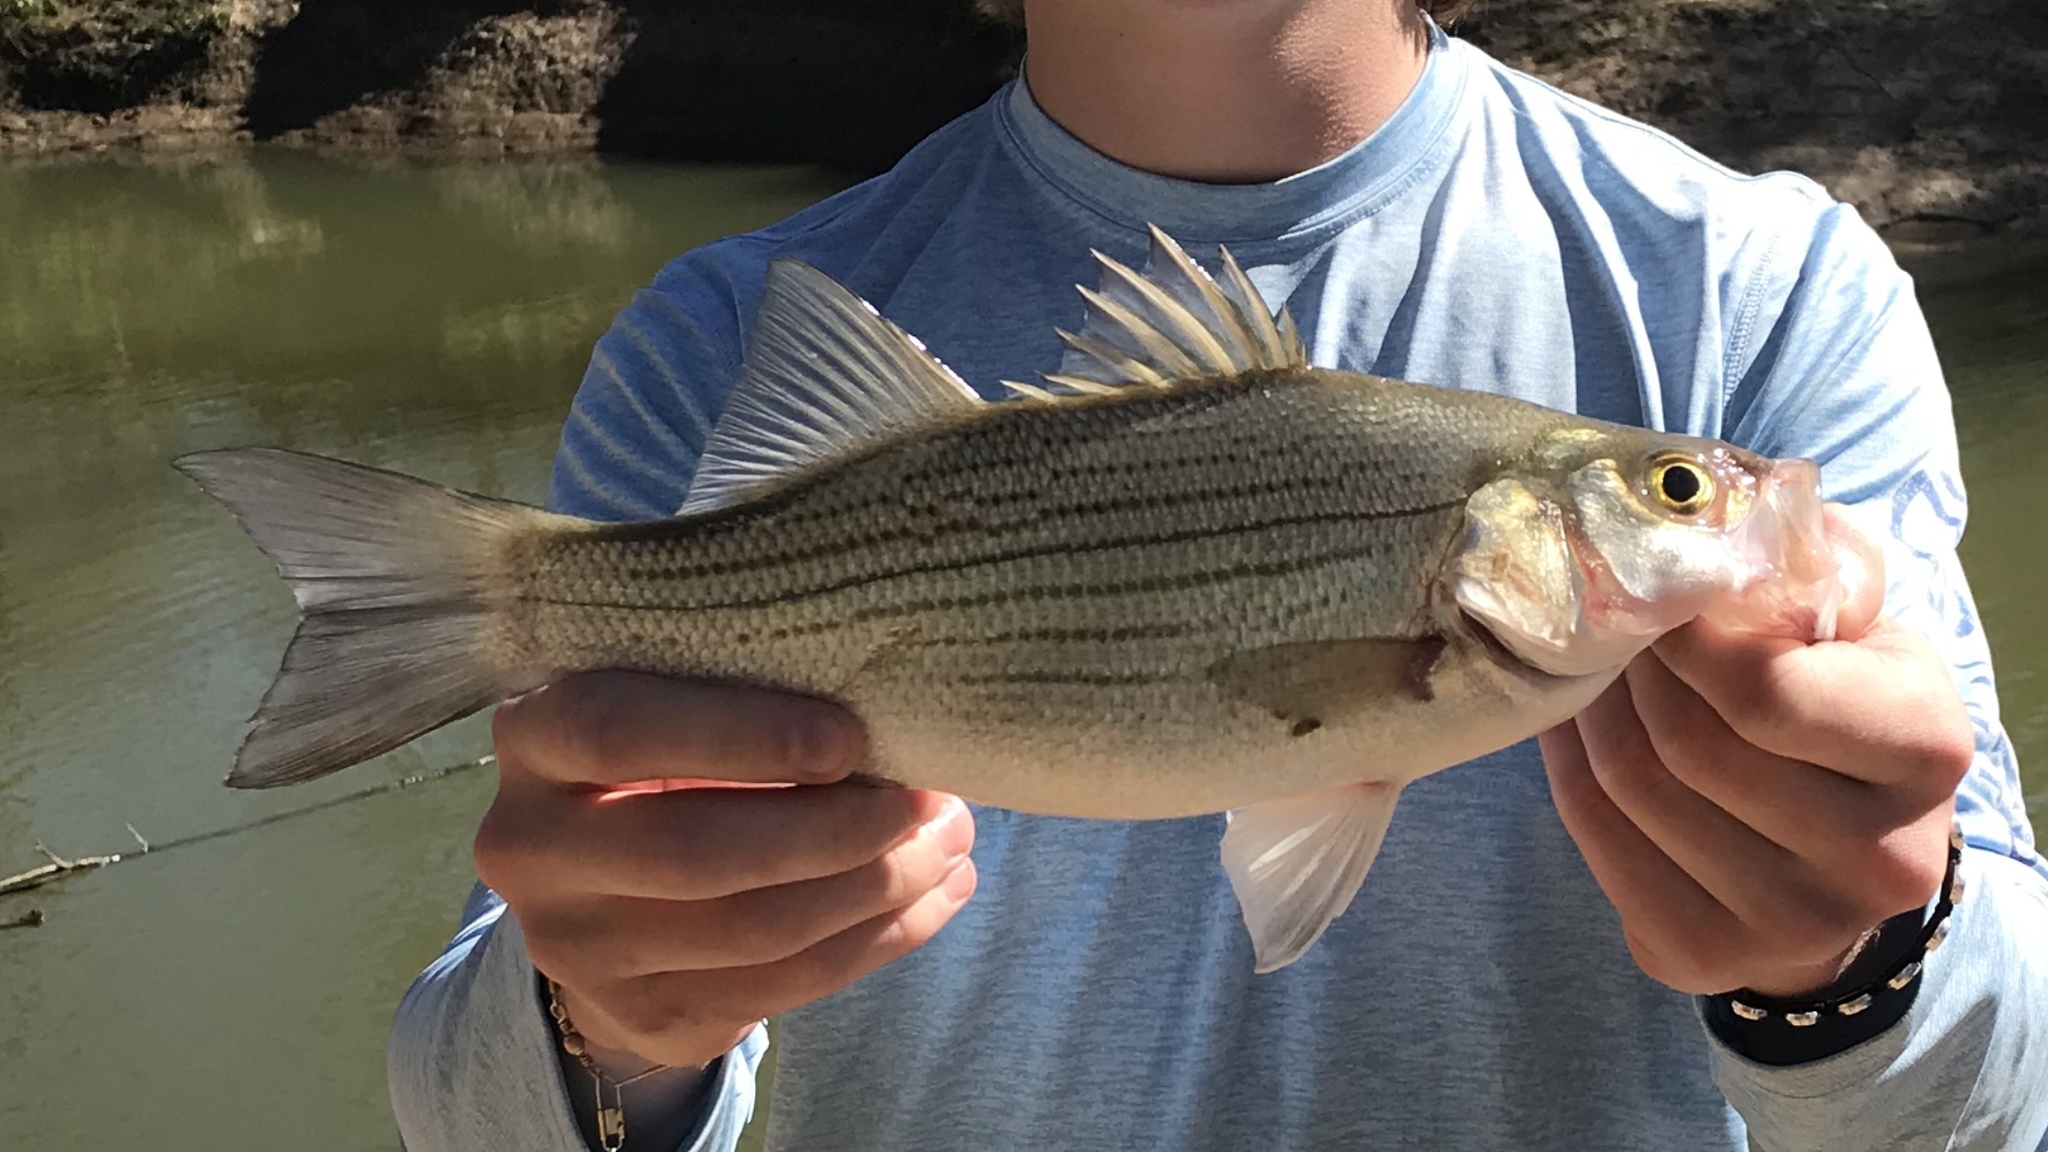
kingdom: Animalia
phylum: Chordata
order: Perciformes
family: Moronidae
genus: Morone
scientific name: Morone
